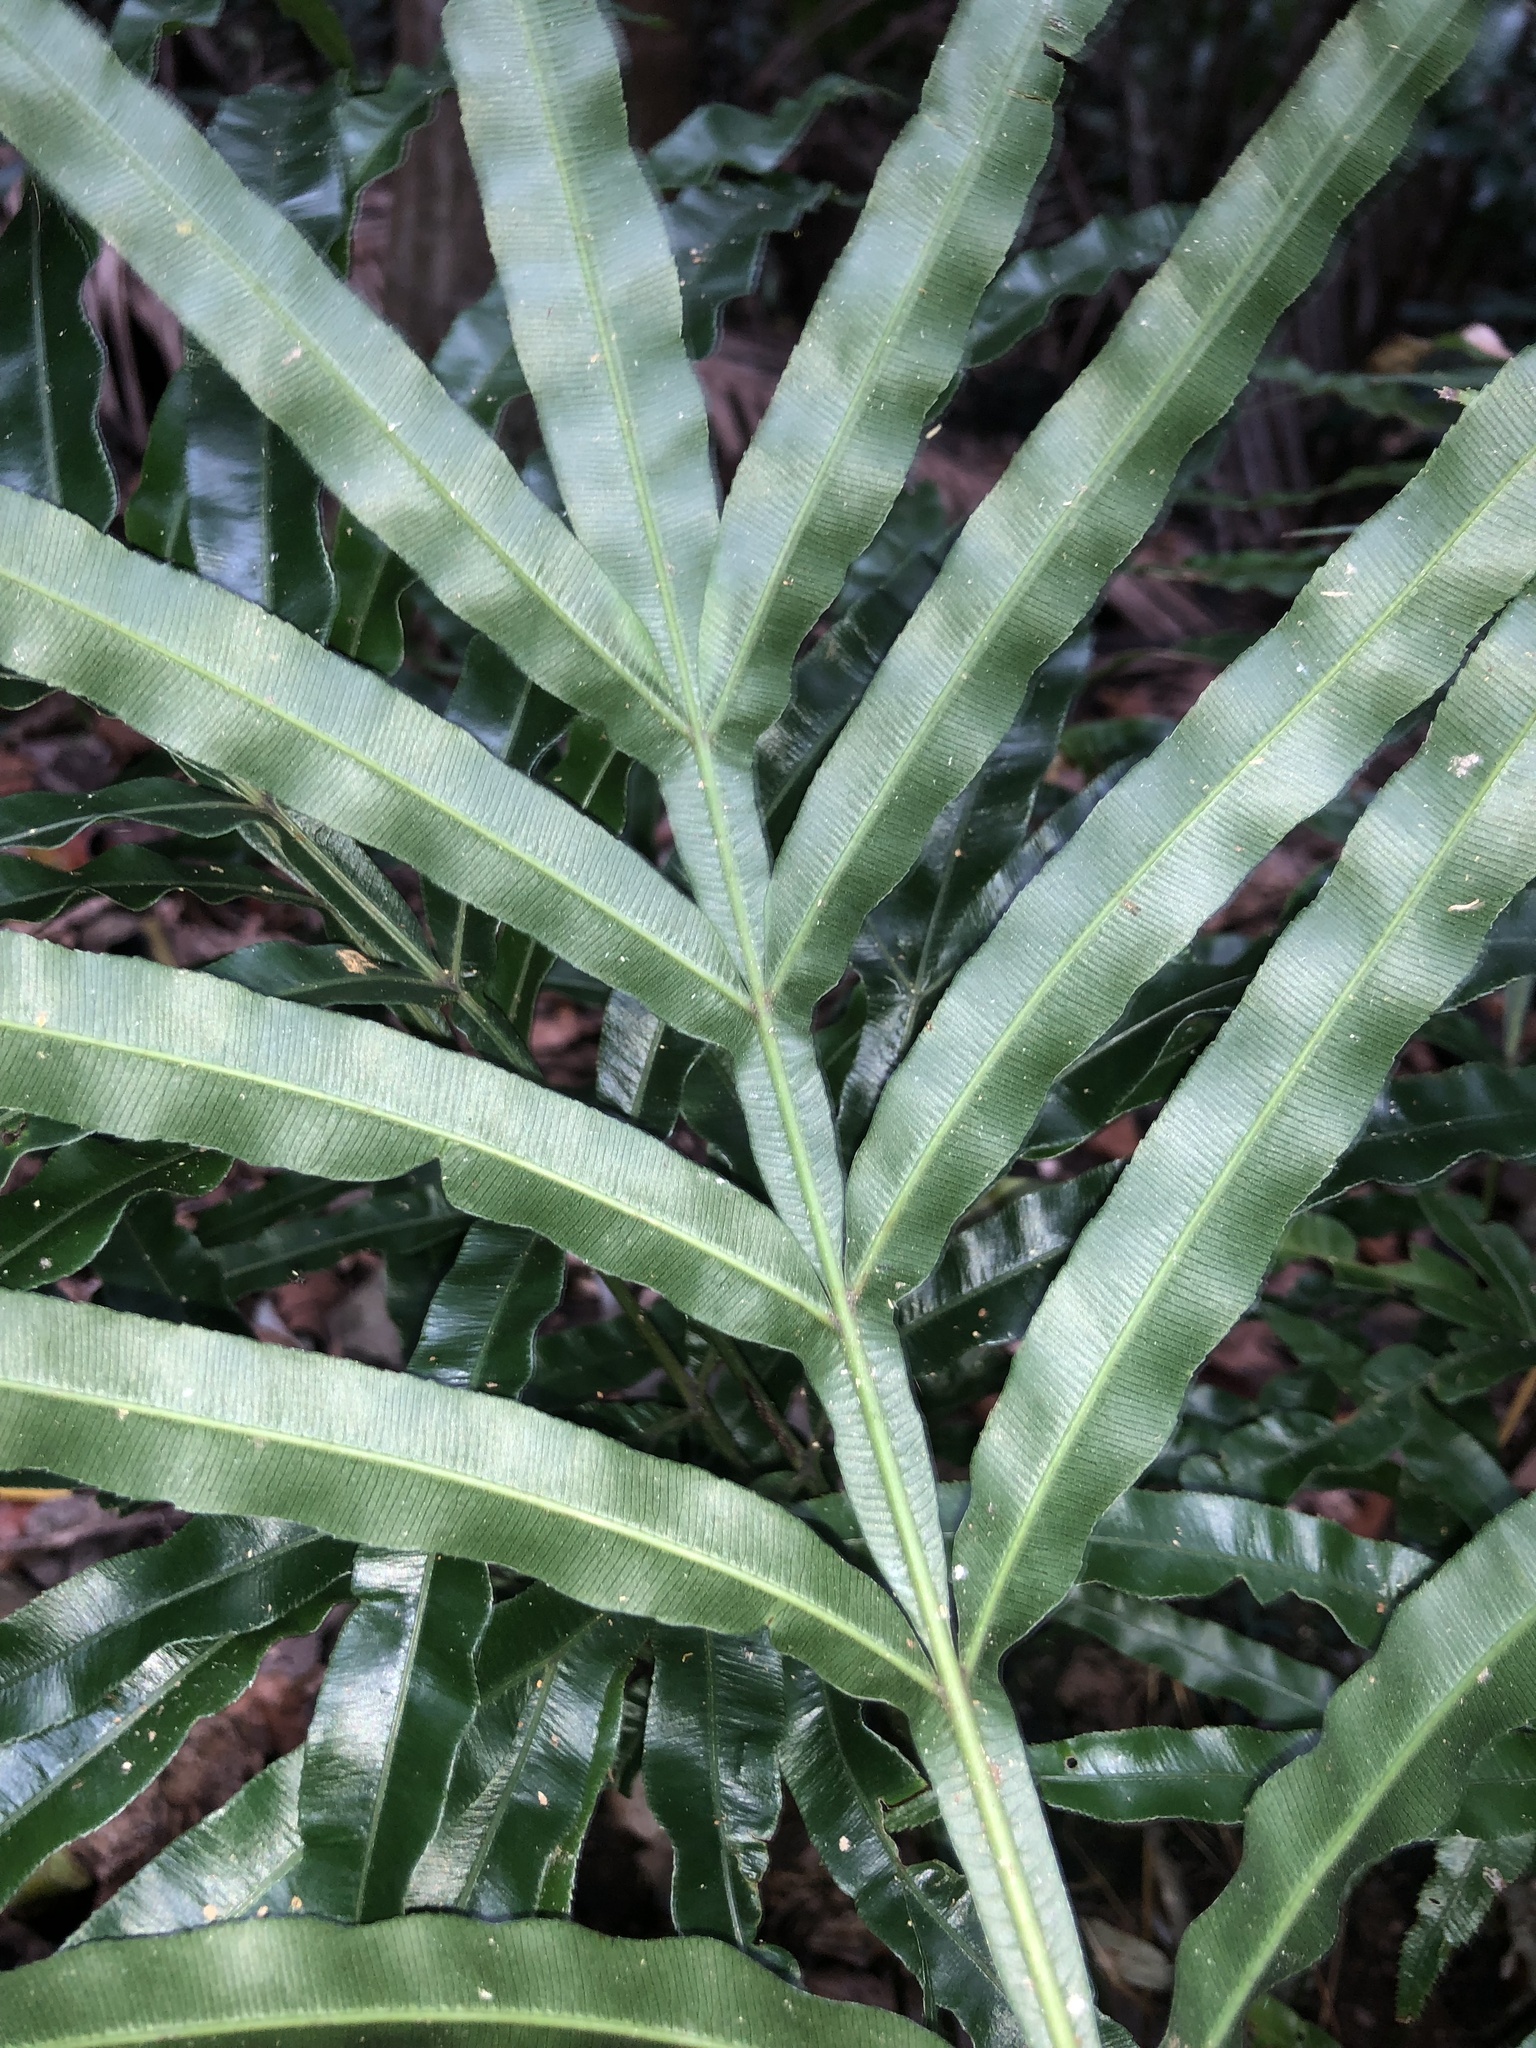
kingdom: Plantae
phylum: Tracheophyta
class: Polypodiopsida
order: Polypodiales
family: Pteridaceae
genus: Pteris
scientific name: Pteris umbrosa
